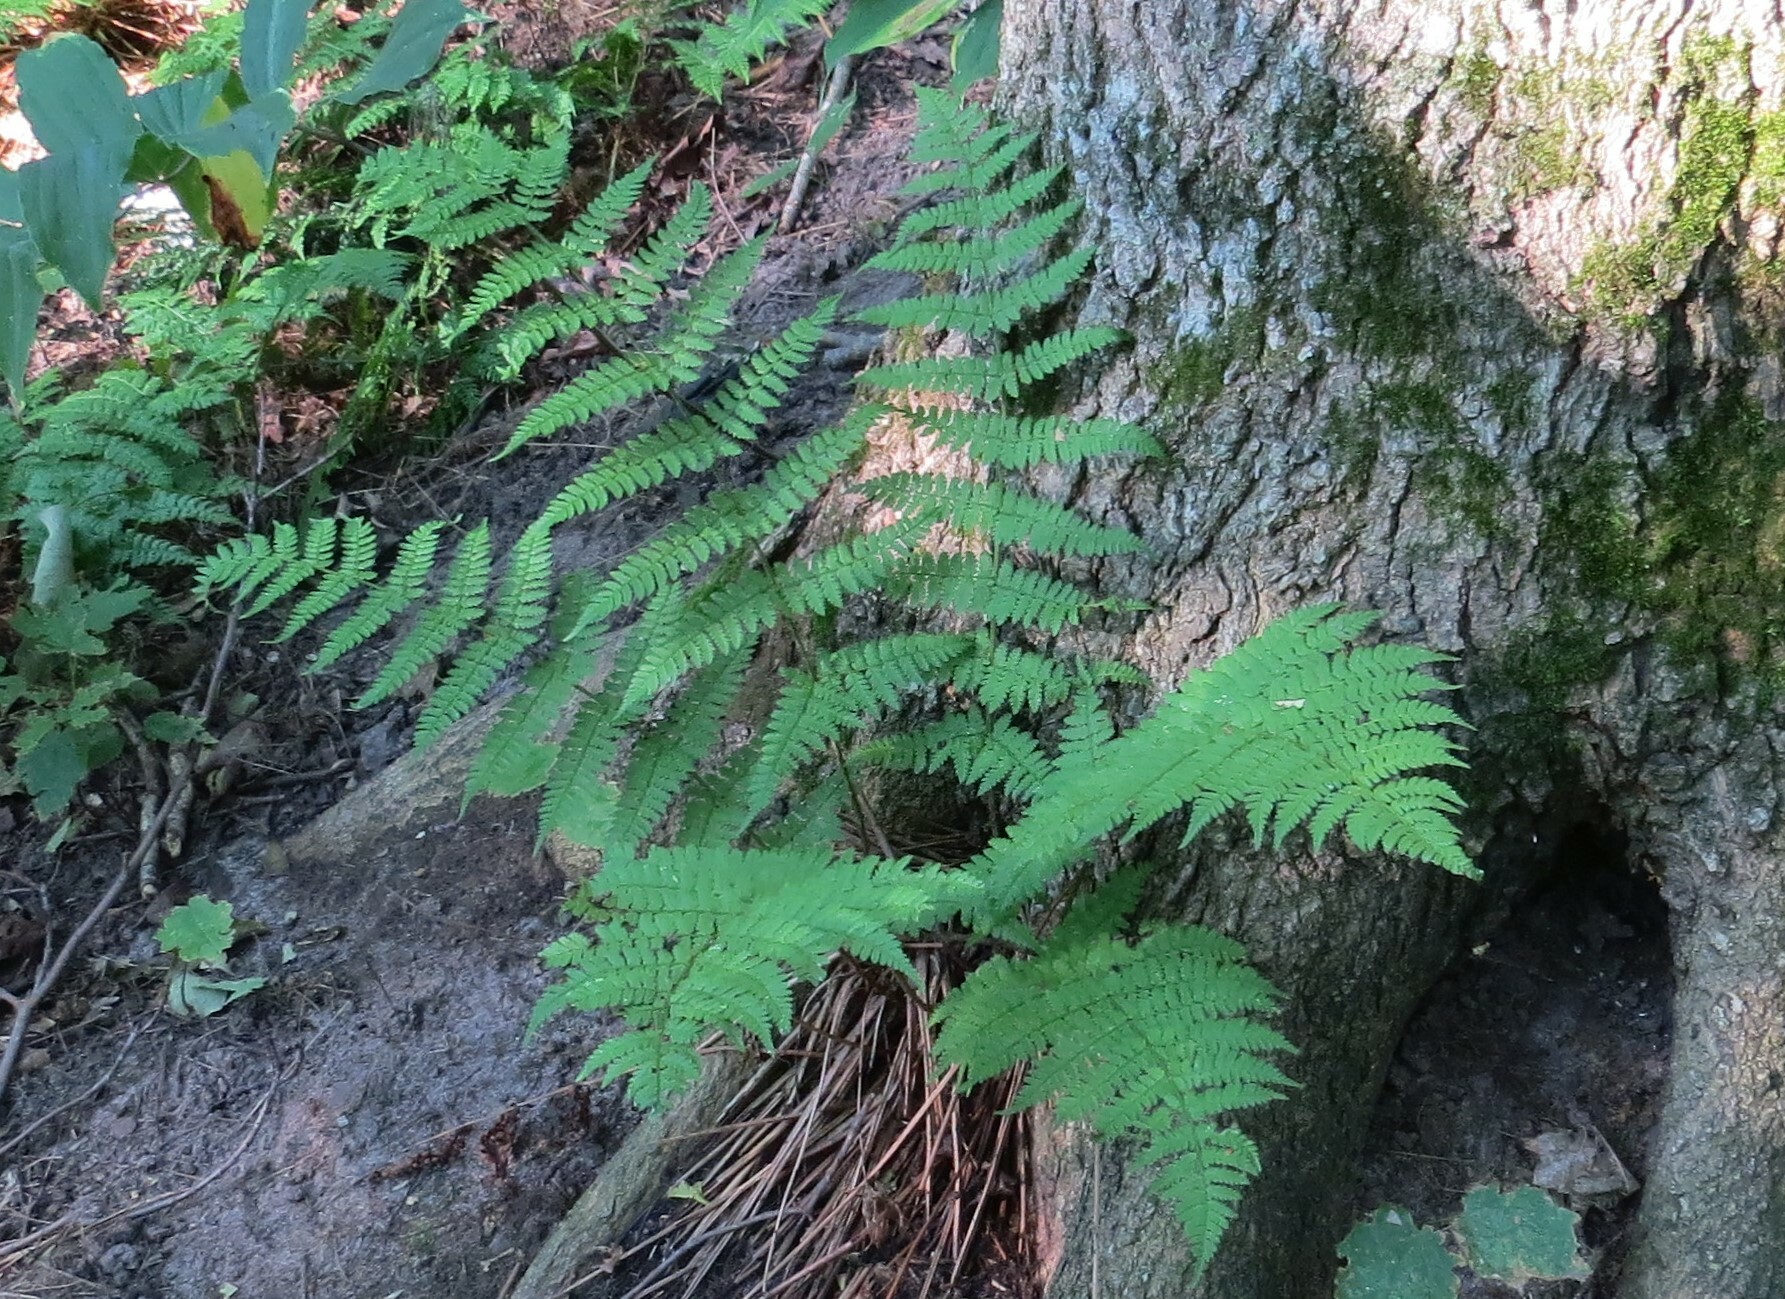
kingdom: Plantae
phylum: Tracheophyta
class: Polypodiopsida
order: Polypodiales
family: Dryopteridaceae
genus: Dryopteris
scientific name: Dryopteris intermedia
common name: Evergreen wood fern
